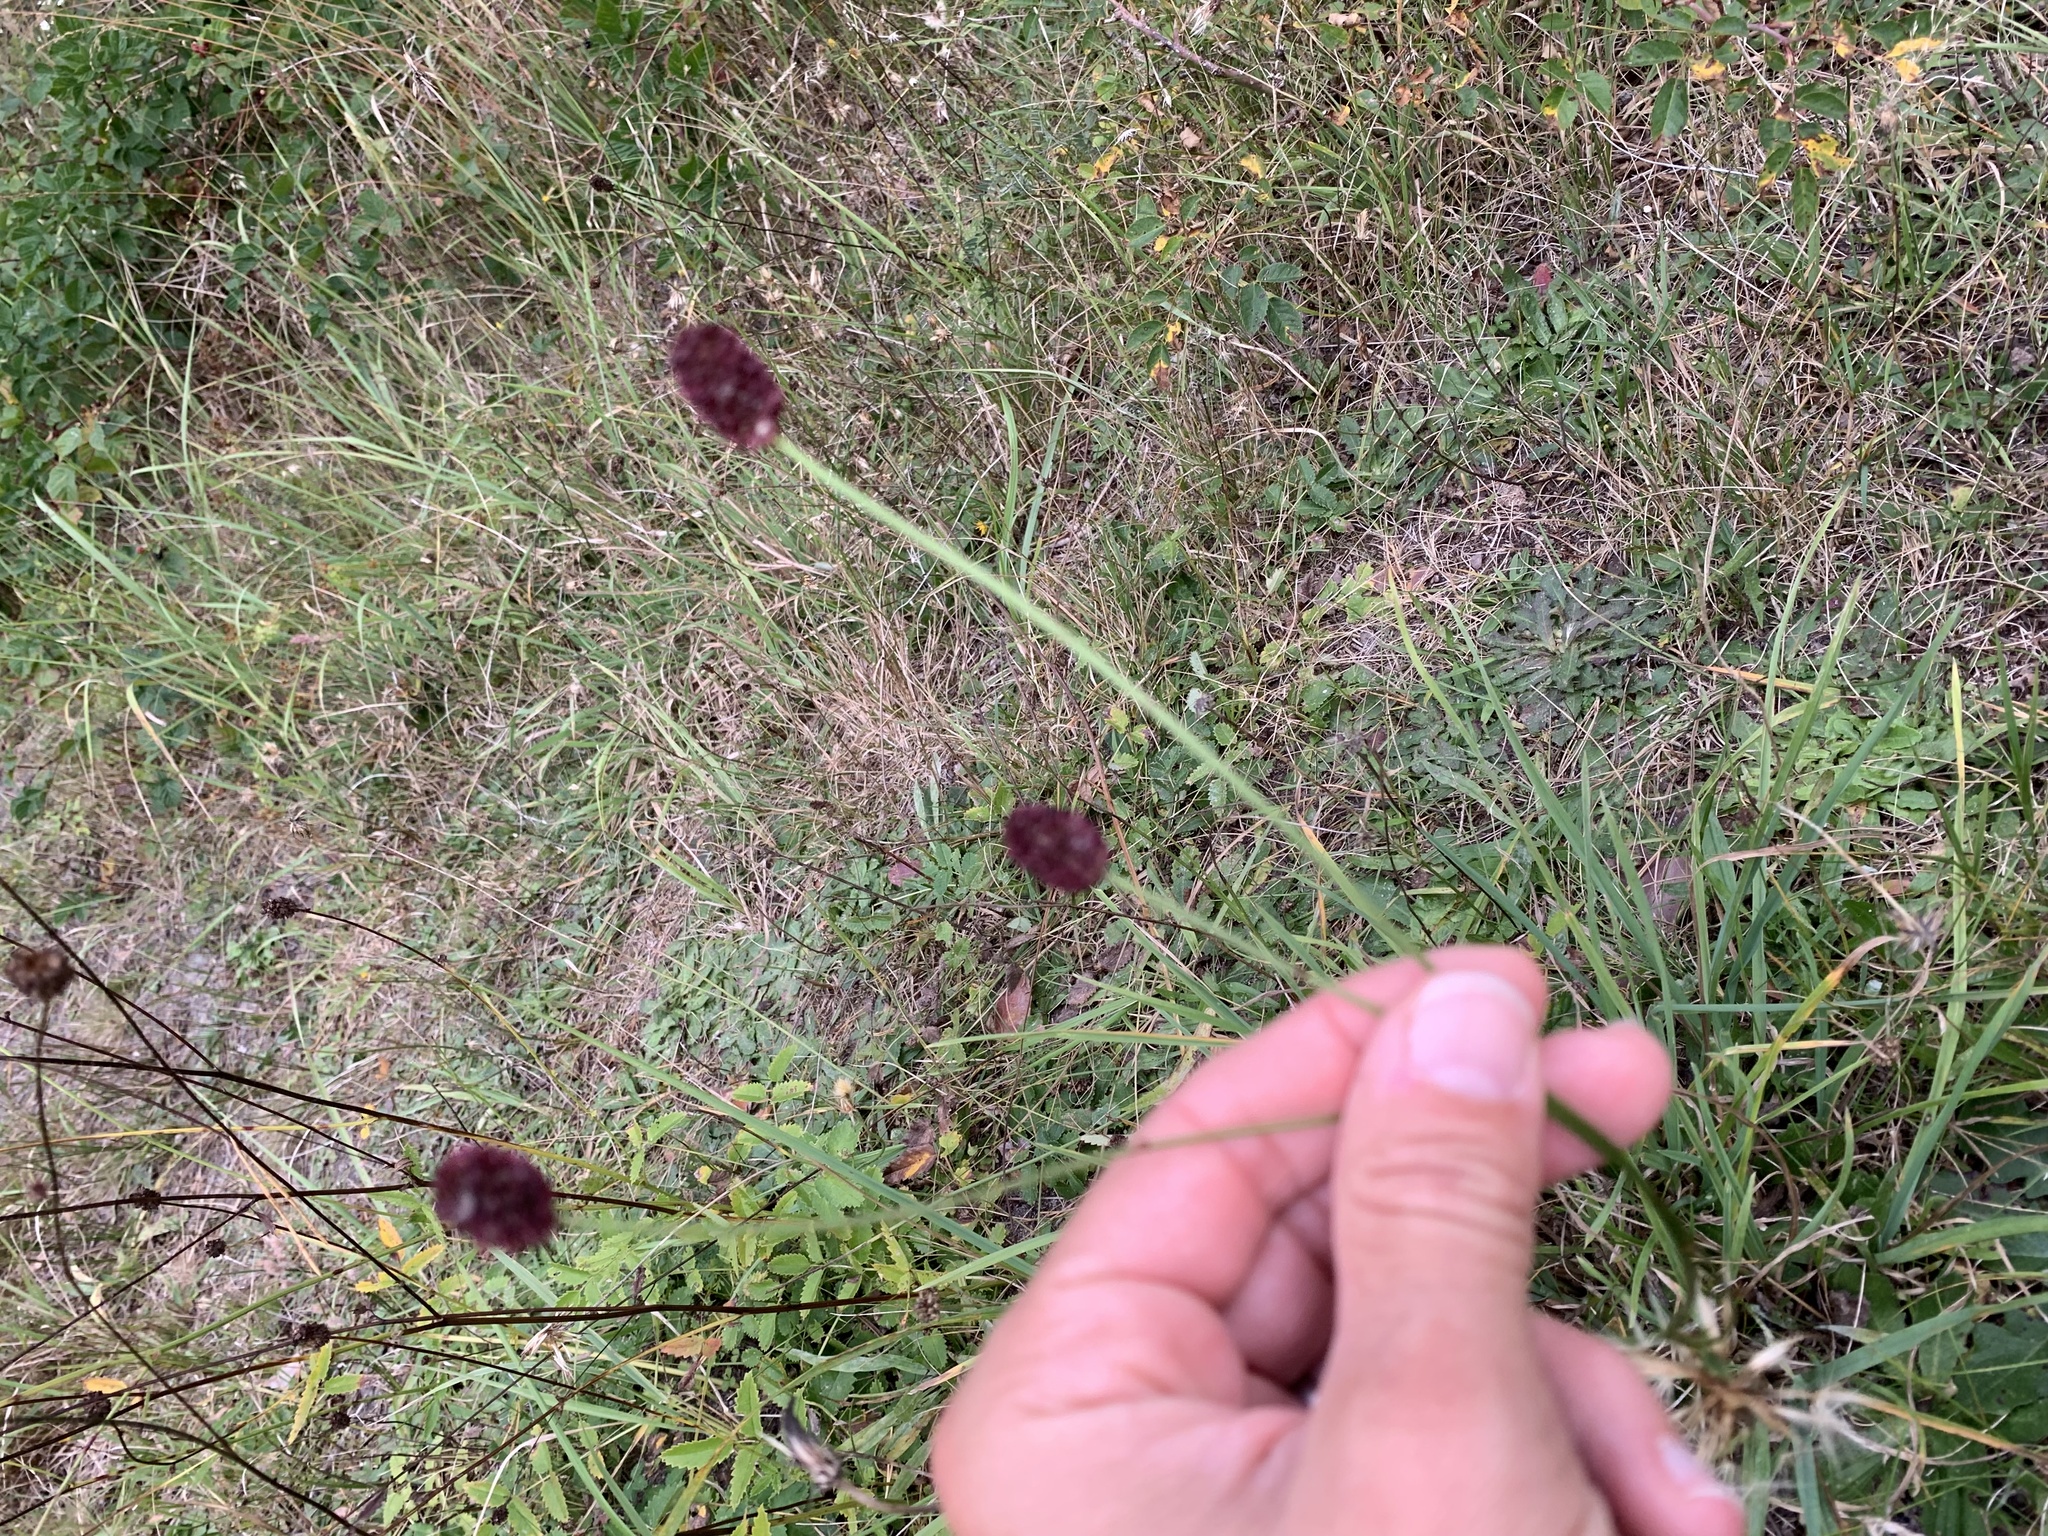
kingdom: Plantae
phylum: Tracheophyta
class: Magnoliopsida
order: Rosales
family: Rosaceae
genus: Sanguisorba
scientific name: Sanguisorba officinalis
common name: Great burnet
